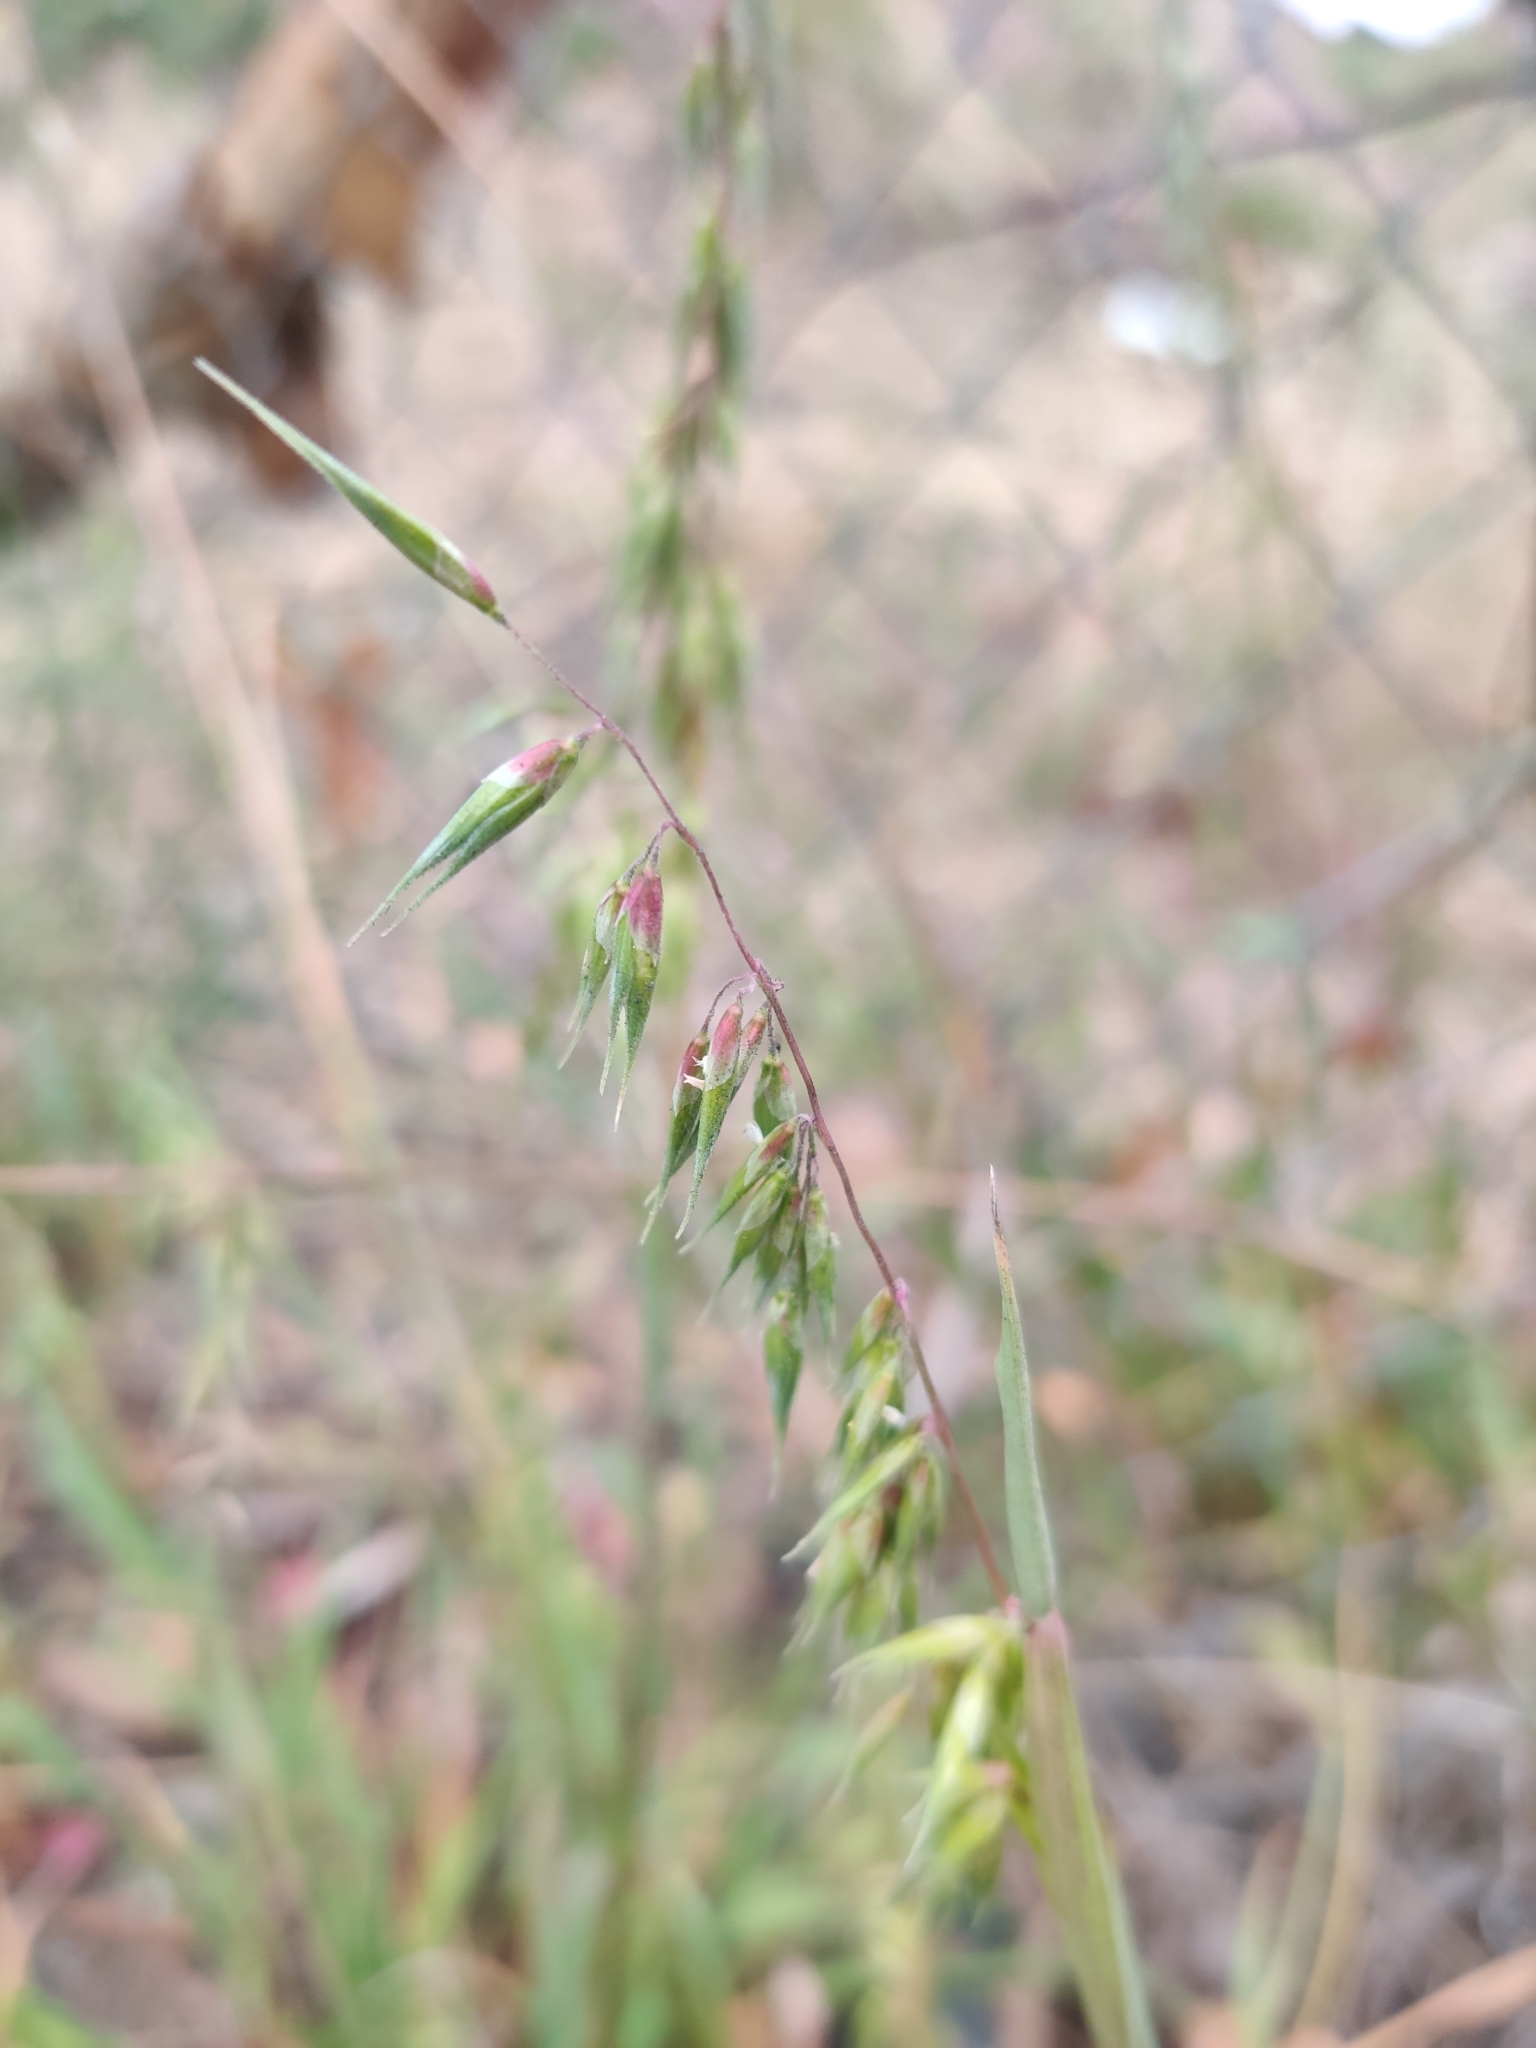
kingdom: Plantae
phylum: Tracheophyta
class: Liliopsida
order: Poales
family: Poaceae
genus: Ehrharta
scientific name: Ehrharta longiflora
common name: Longflowered veldtgrass
